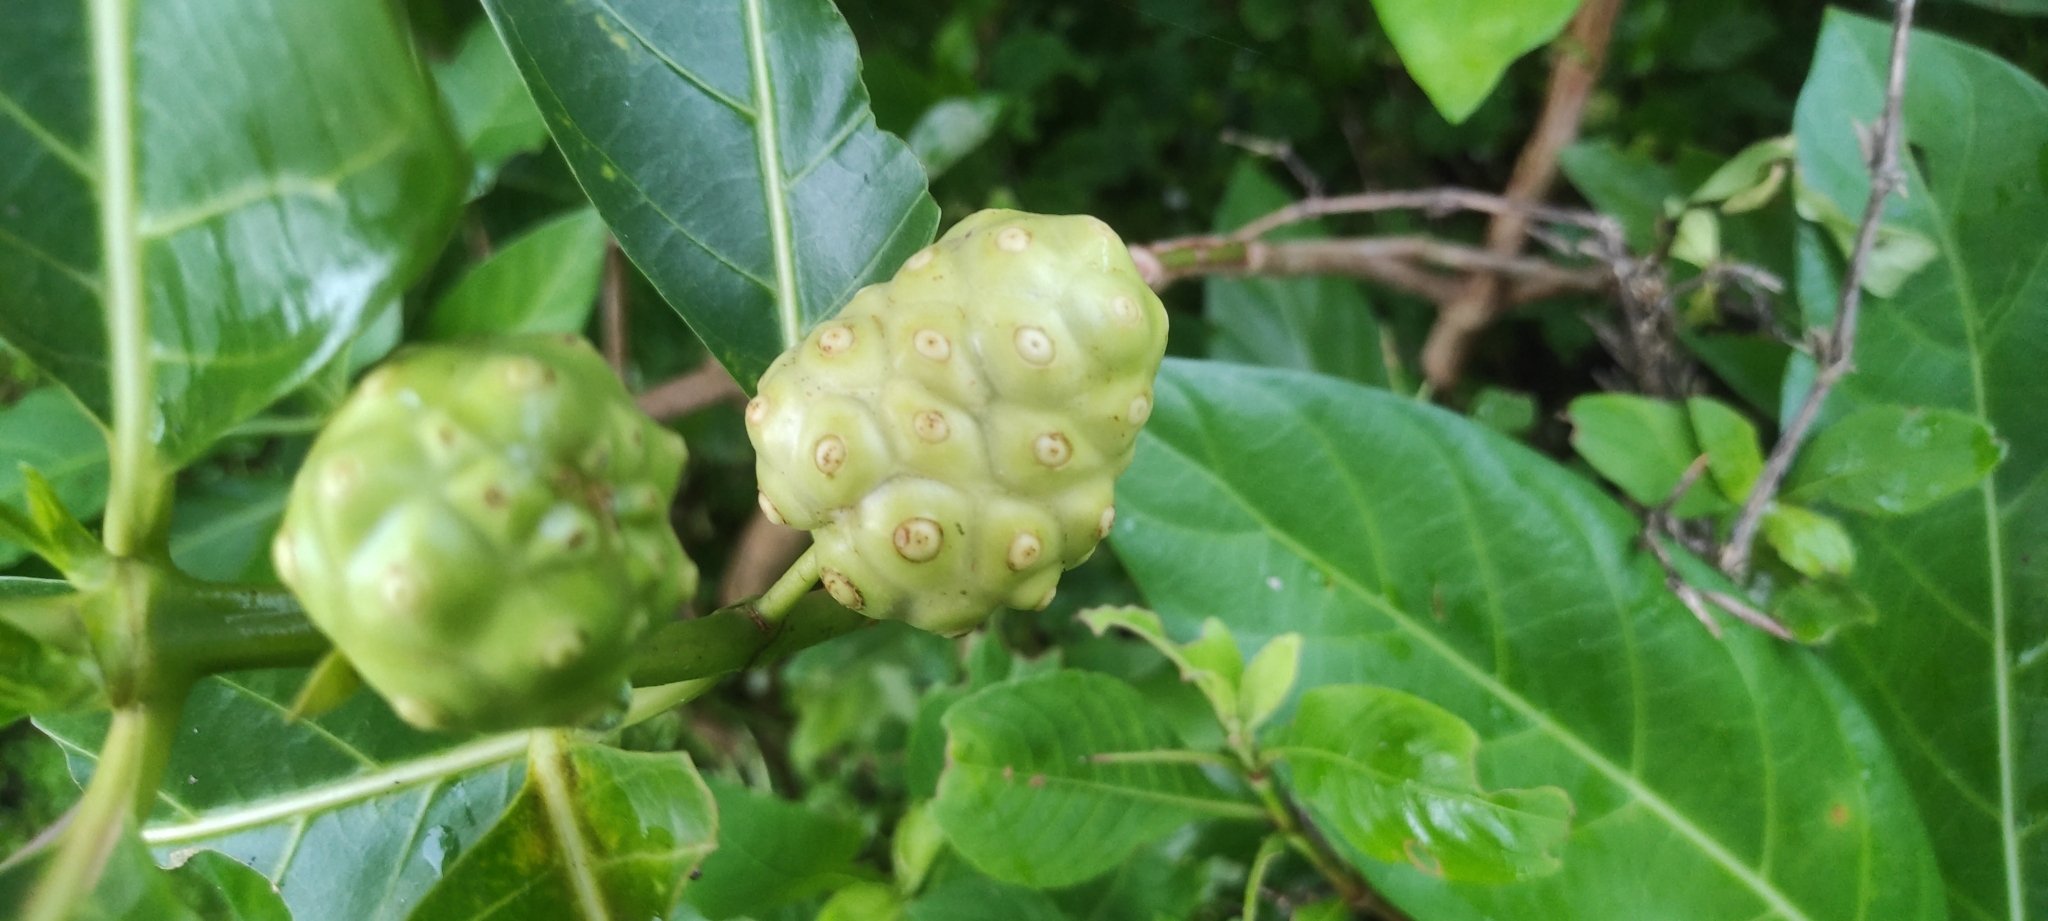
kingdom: Plantae
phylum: Tracheophyta
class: Magnoliopsida
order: Gentianales
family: Rubiaceae
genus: Morinda
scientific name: Morinda citrifolia
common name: Indian-mulberry
